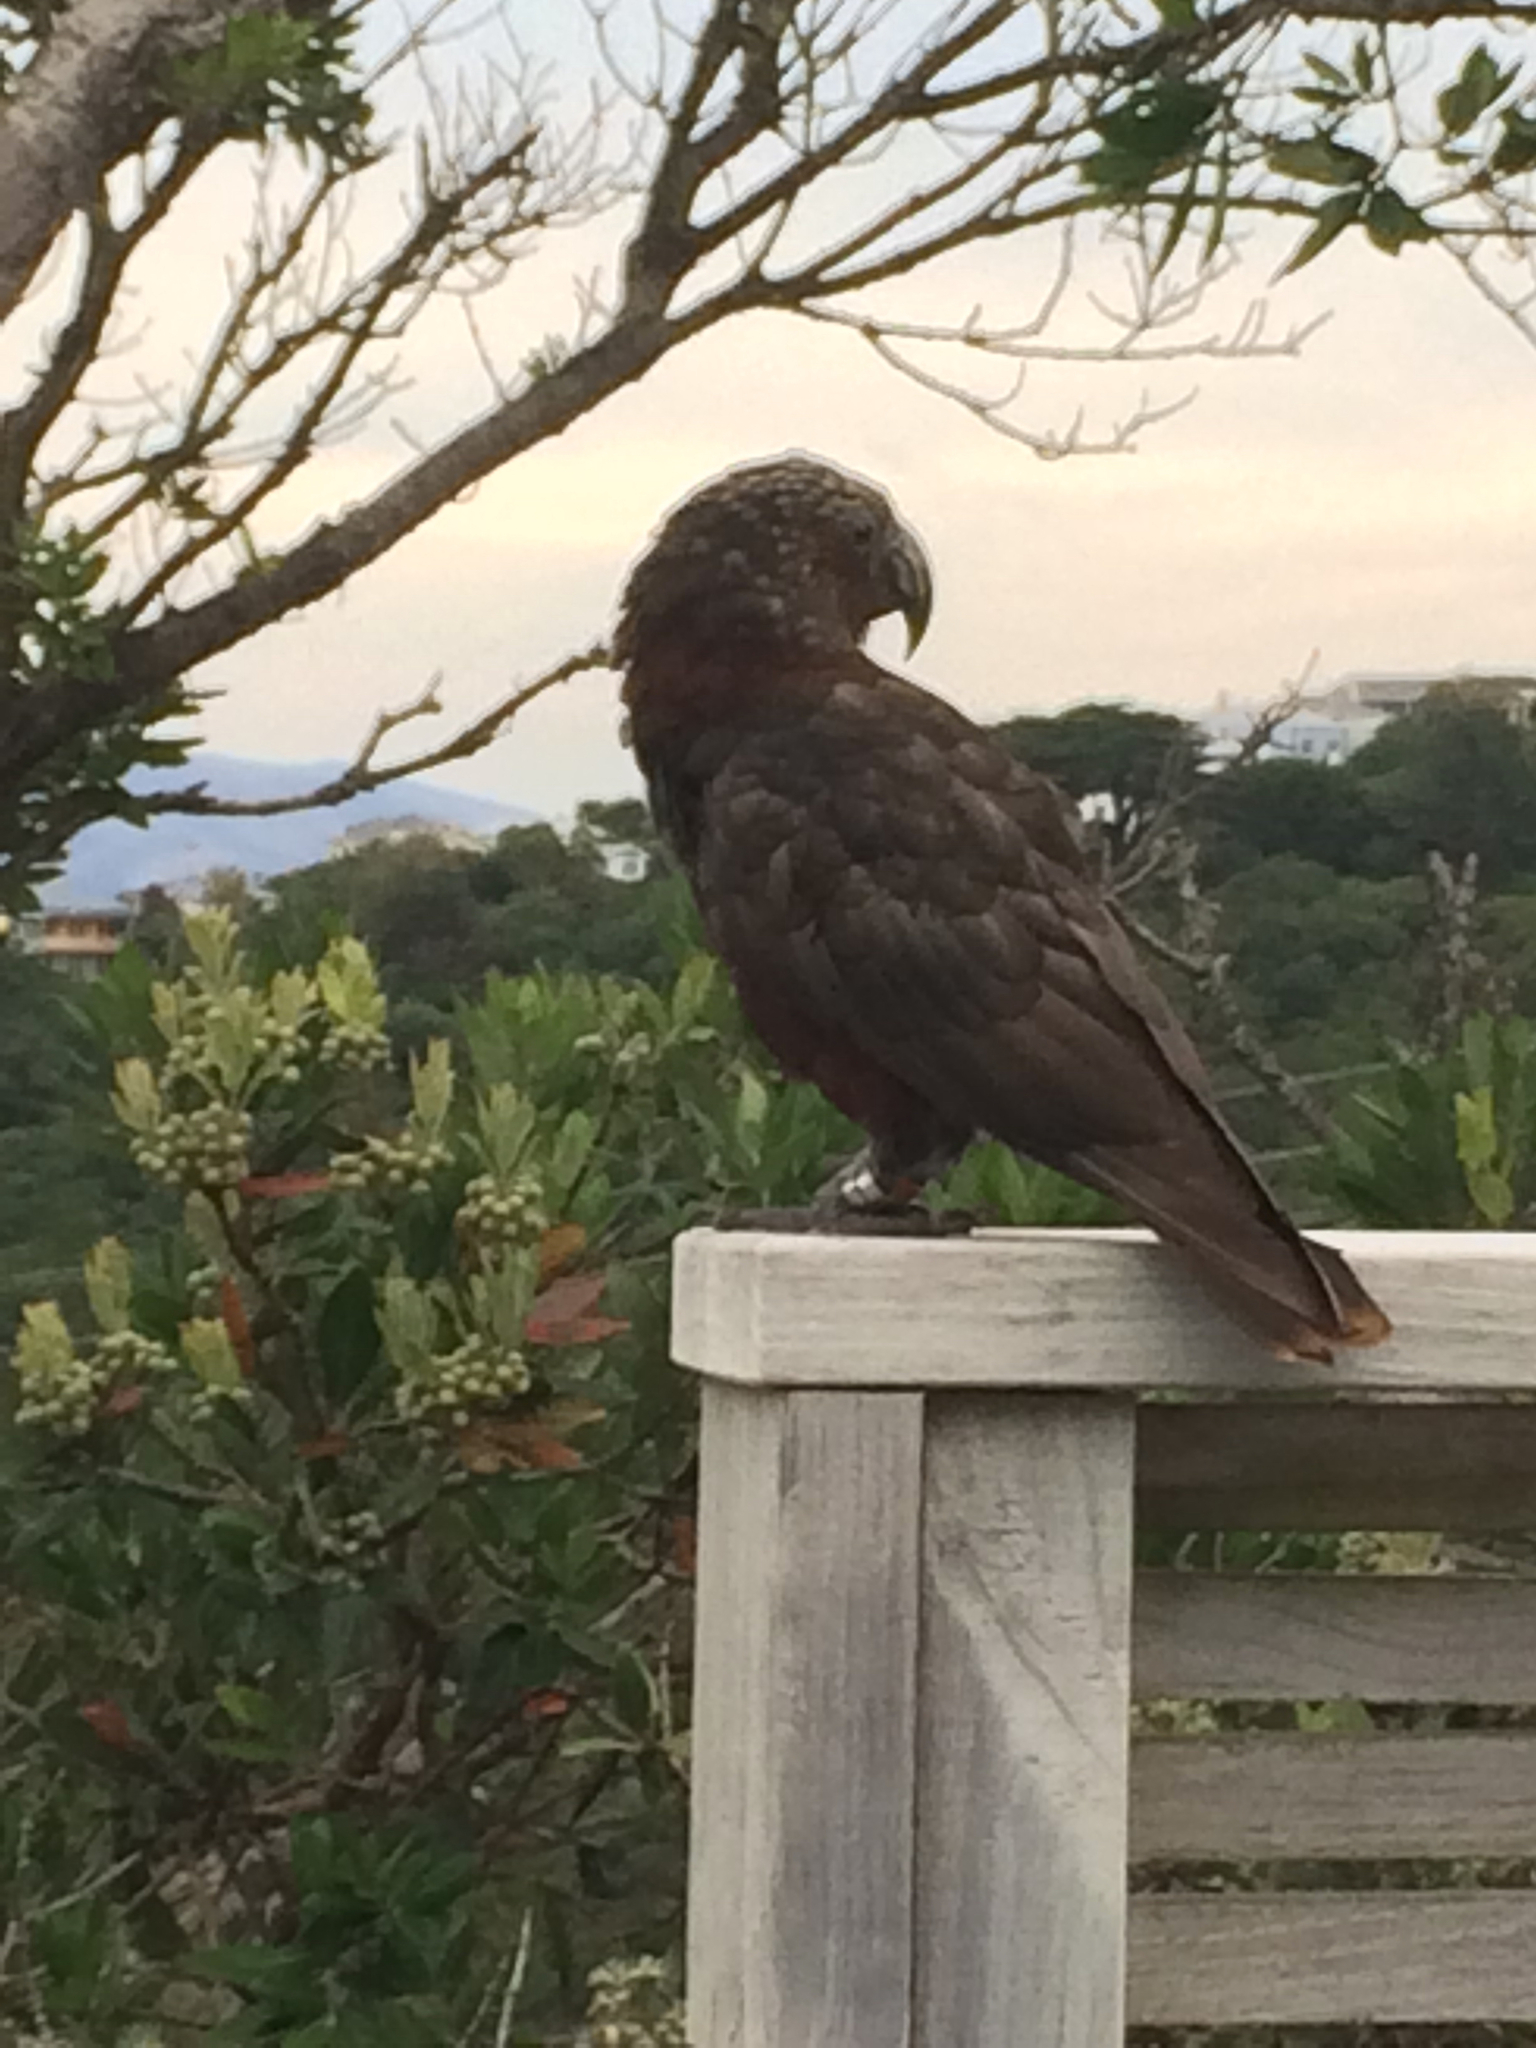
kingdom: Animalia
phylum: Chordata
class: Aves
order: Psittaciformes
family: Psittacidae
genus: Nestor
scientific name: Nestor meridionalis
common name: New zealand kaka
